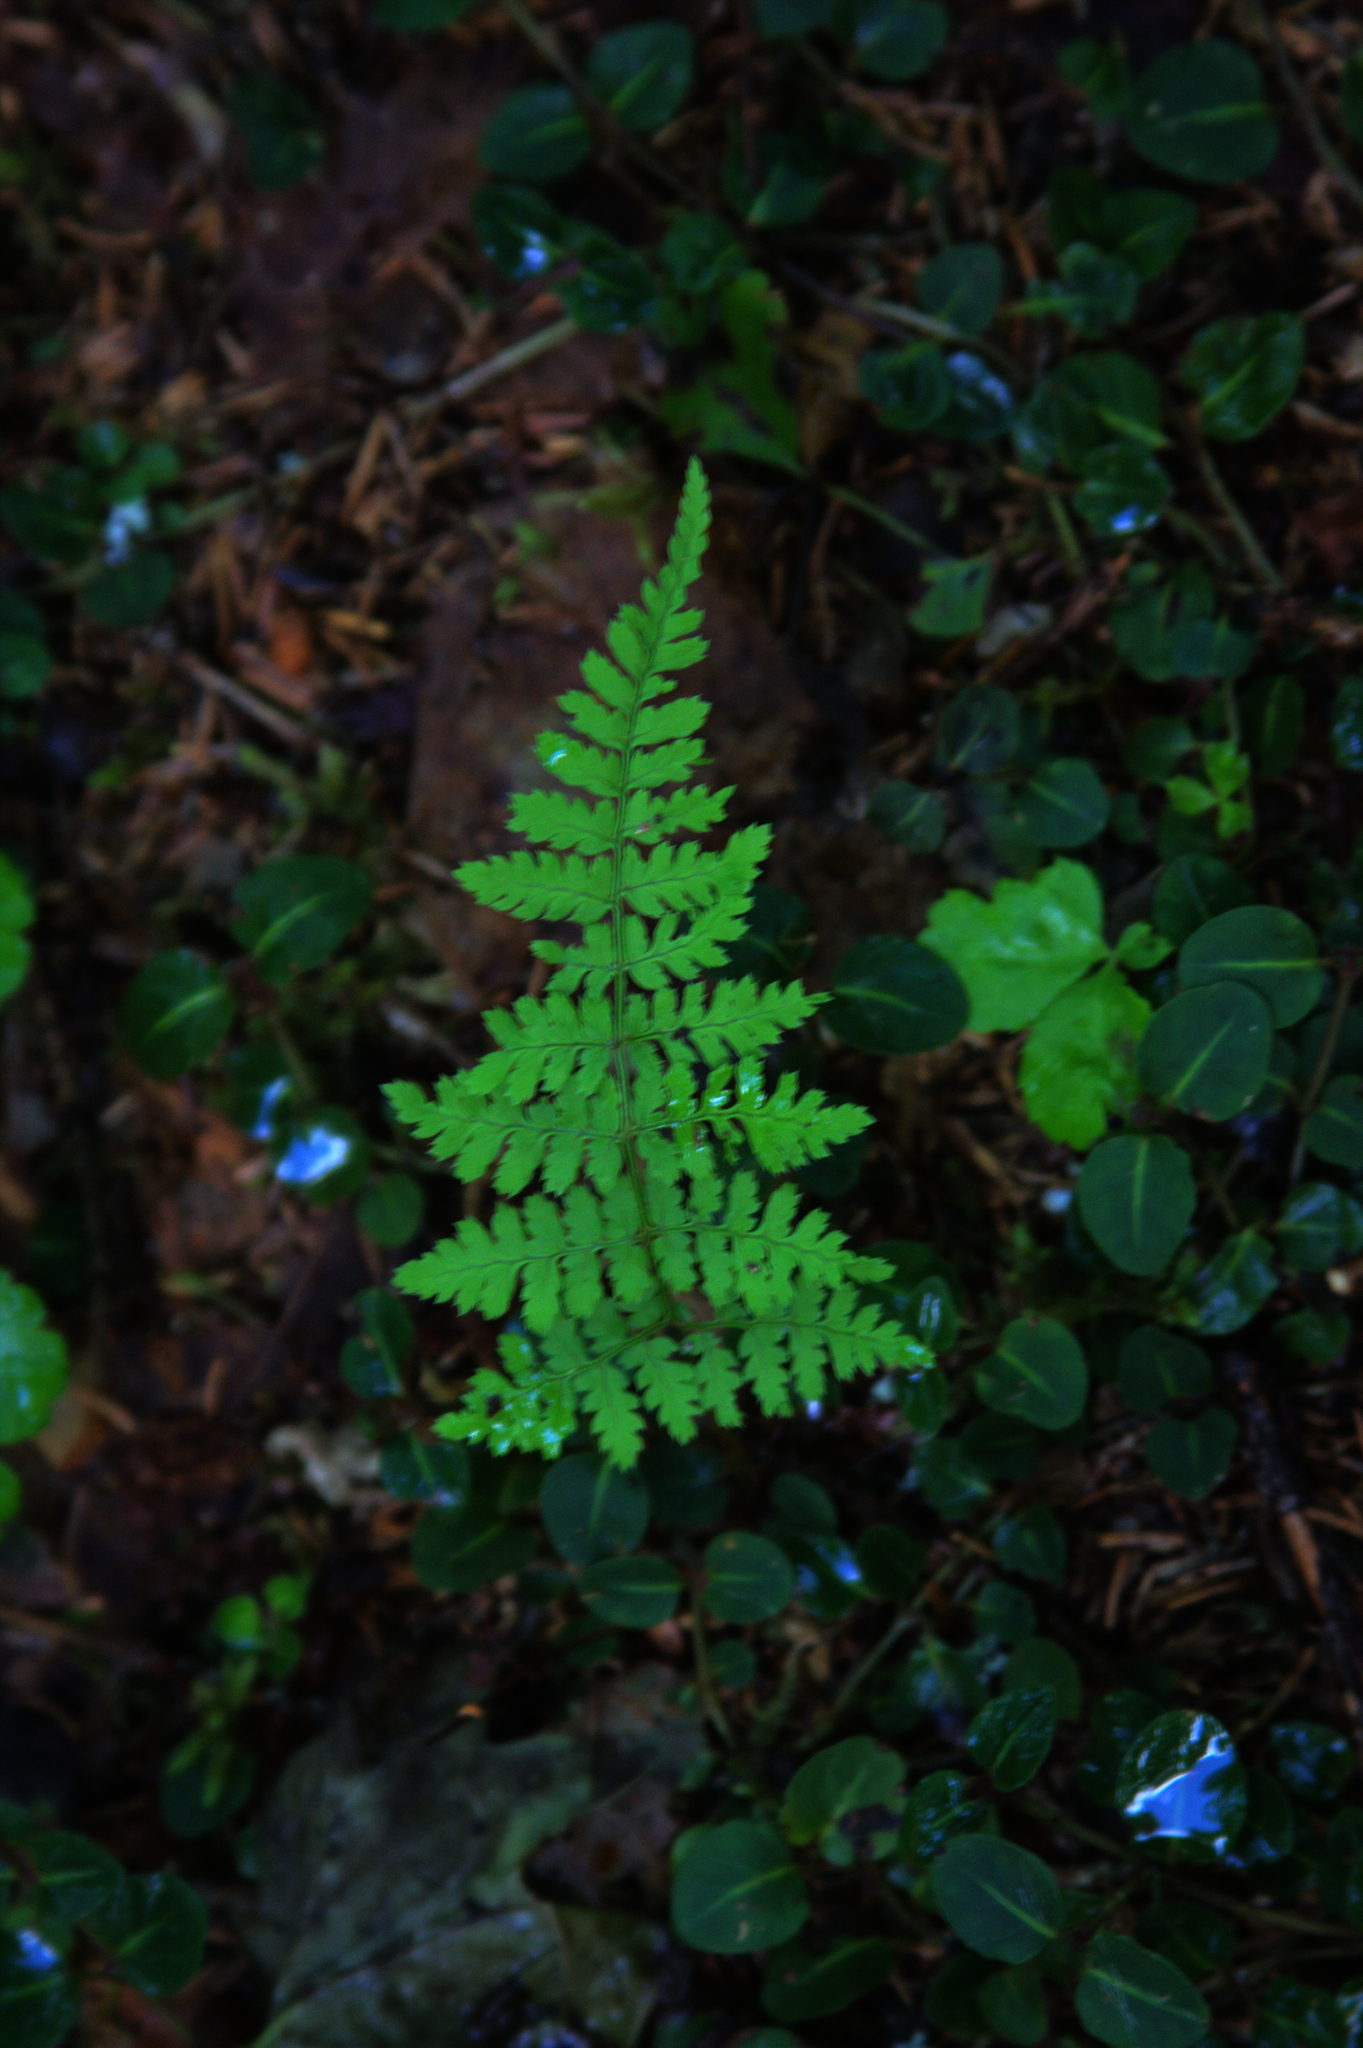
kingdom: Plantae
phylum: Tracheophyta
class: Polypodiopsida
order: Polypodiales
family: Dryopteridaceae
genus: Dryopteris
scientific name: Dryopteris intermedia
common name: Evergreen wood fern
